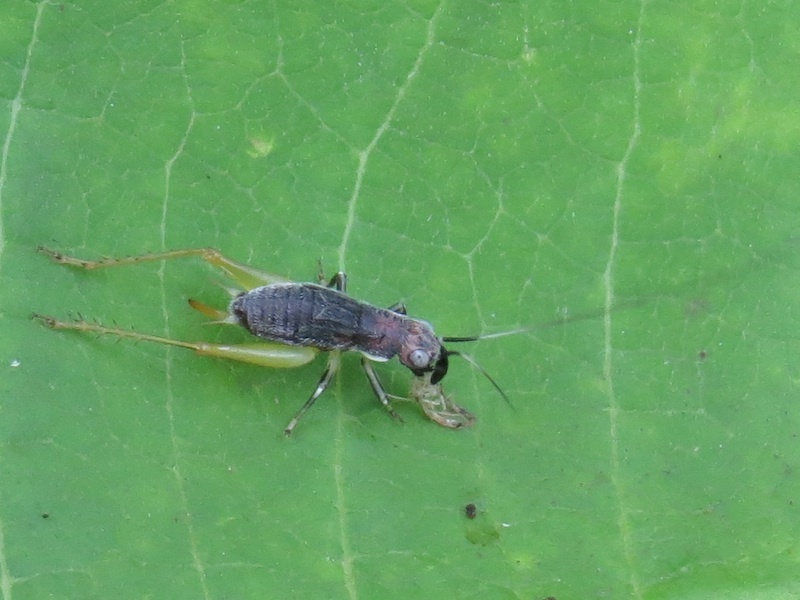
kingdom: Animalia
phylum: Arthropoda
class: Insecta
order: Orthoptera
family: Trigonidiidae
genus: Phyllopalpus
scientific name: Phyllopalpus pulchellus
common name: Handsome trig
